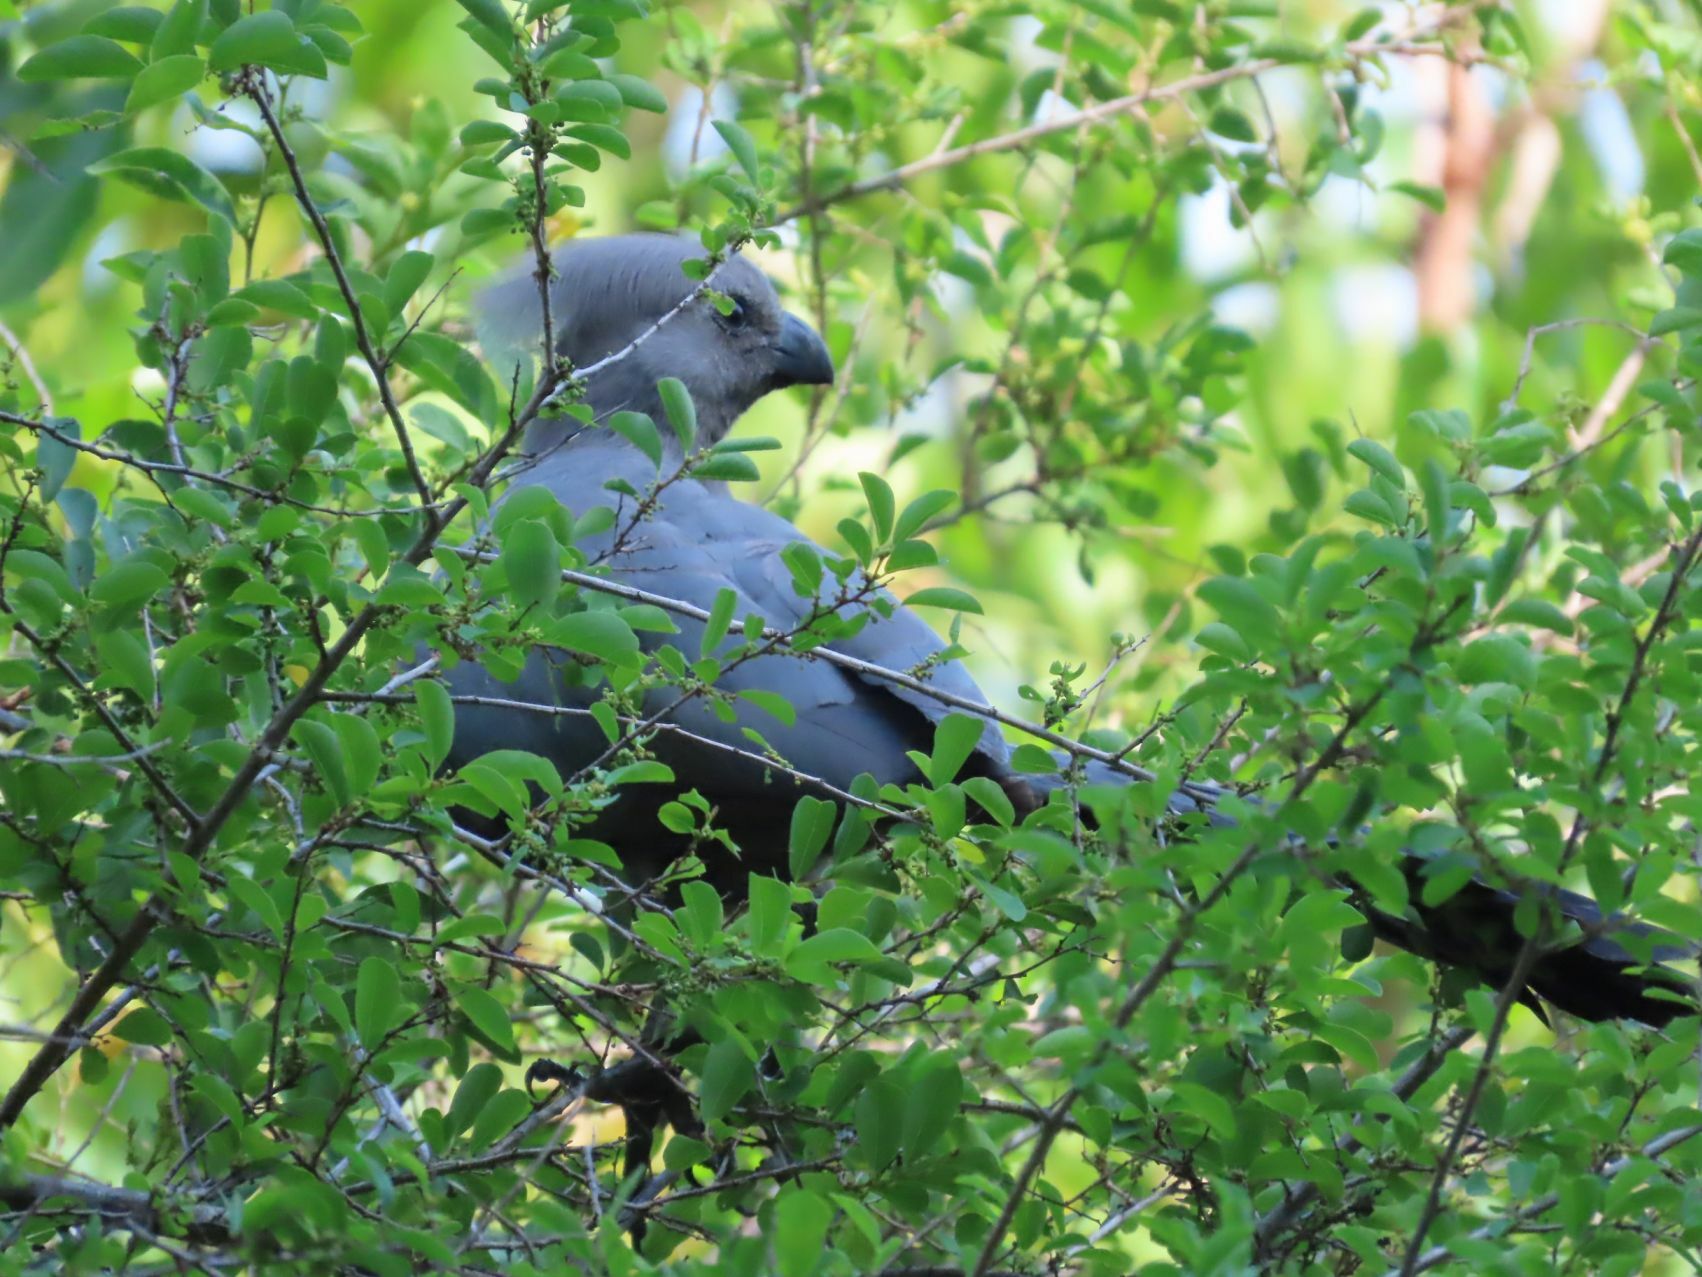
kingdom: Animalia
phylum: Chordata
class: Aves
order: Musophagiformes
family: Musophagidae
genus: Corythaixoides
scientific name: Corythaixoides concolor
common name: Grey go-away-bird
